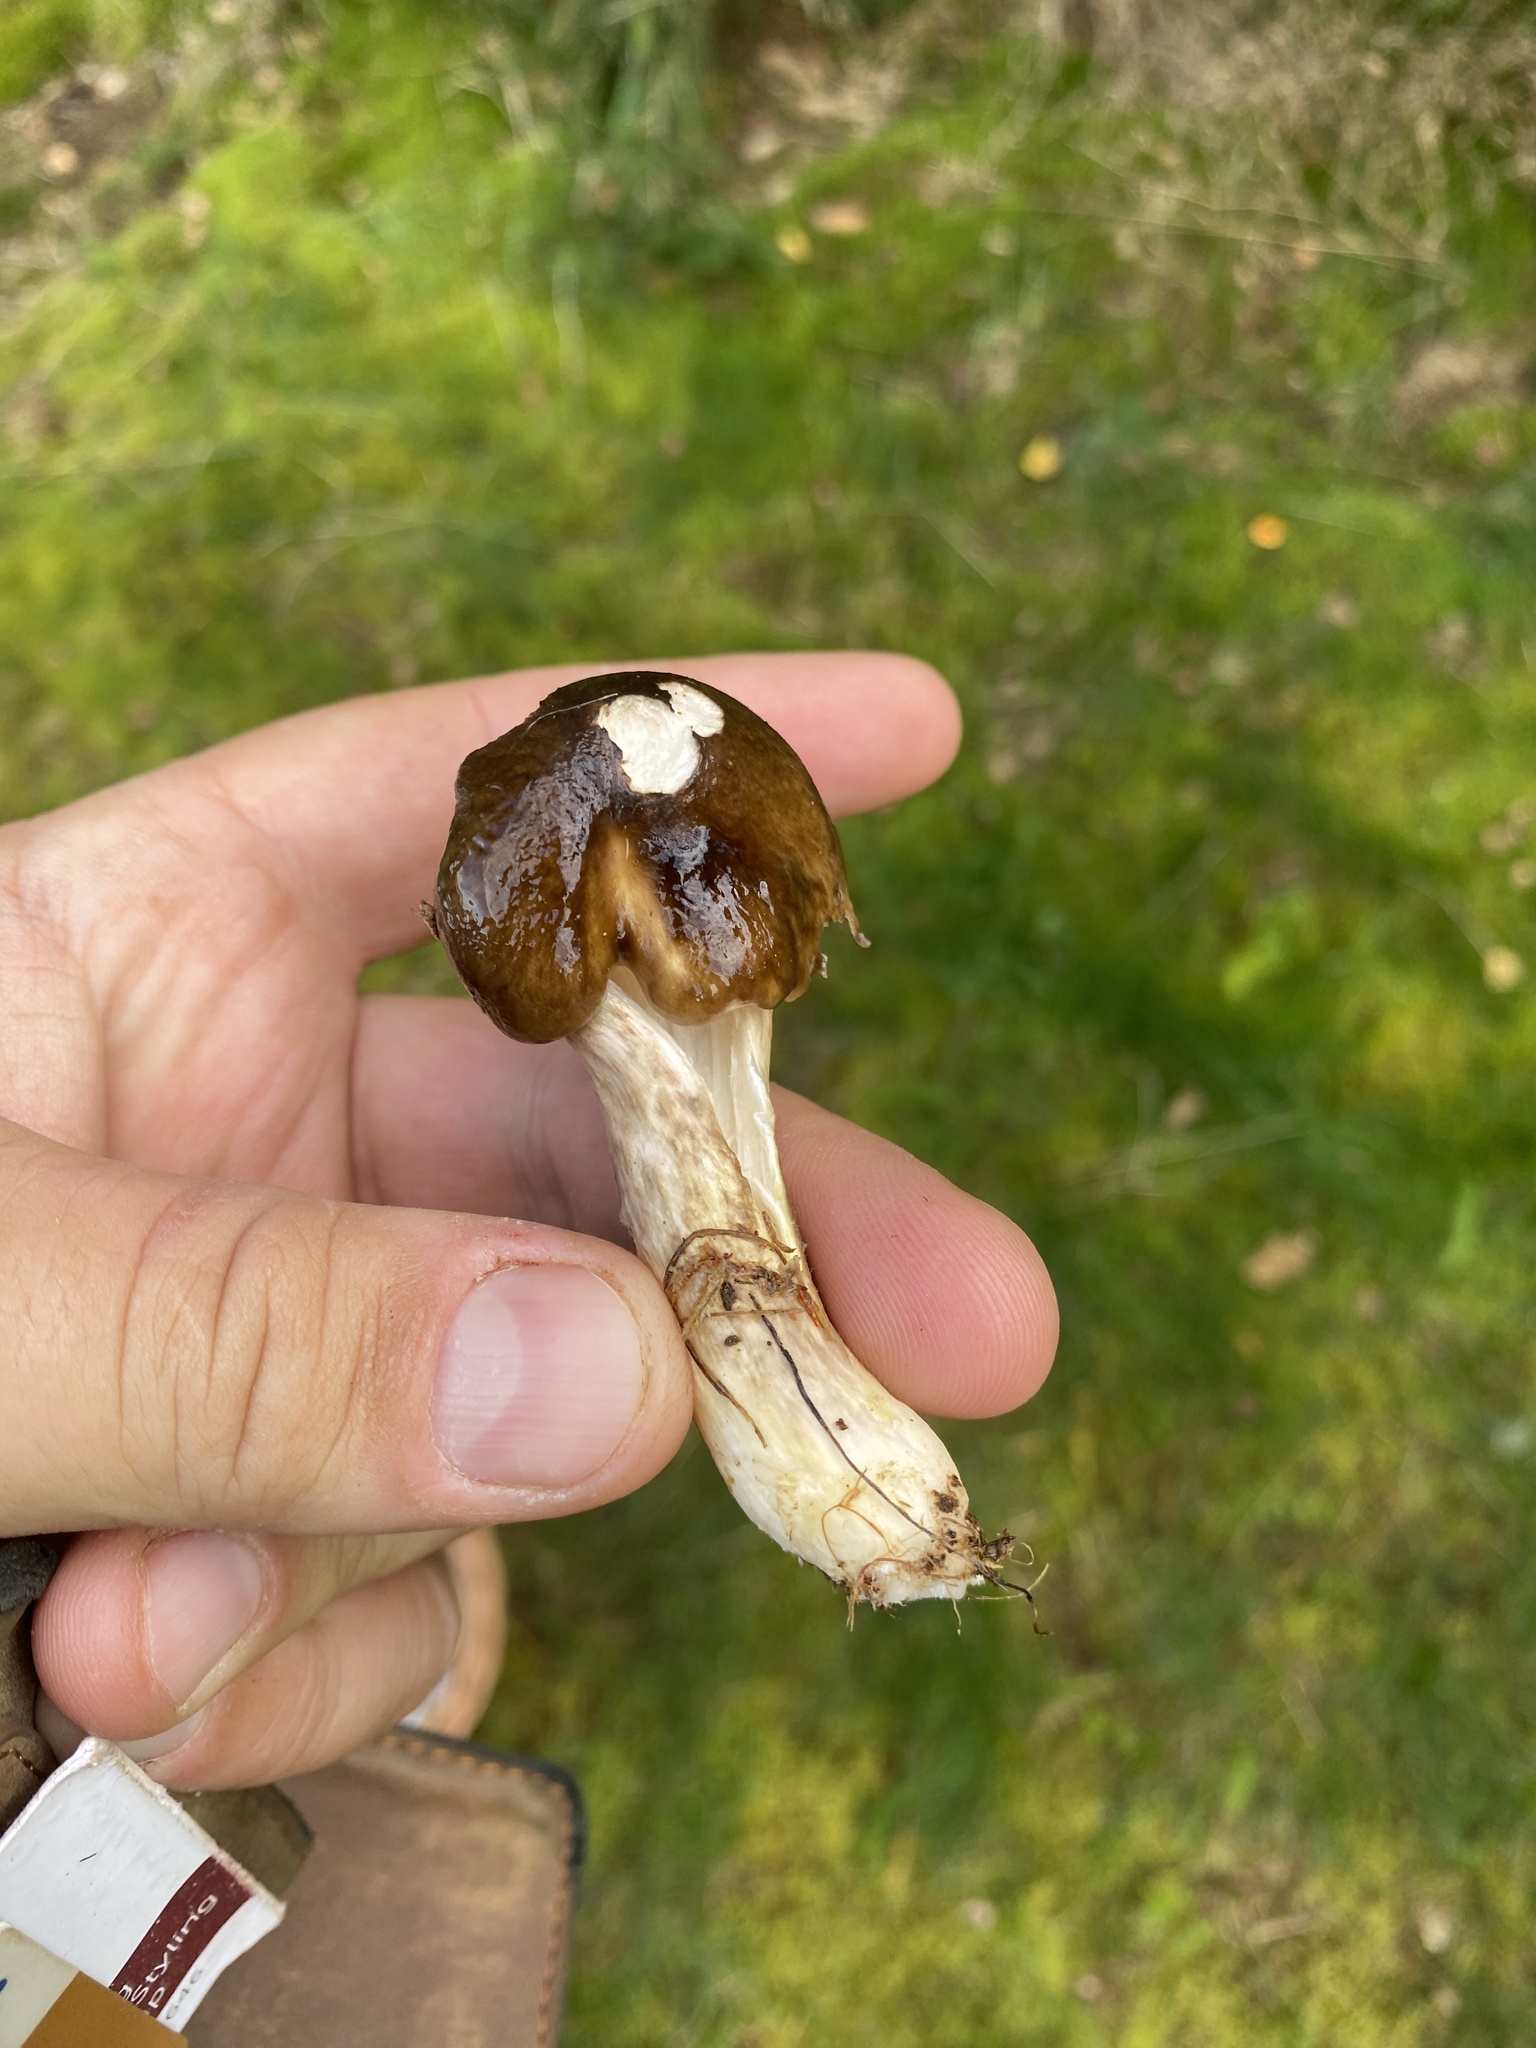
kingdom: Fungi
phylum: Basidiomycota
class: Agaricomycetes
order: Agaricales
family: Hygrophoraceae
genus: Hygrophorus
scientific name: Hygrophorus olivaceoalbus
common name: Olive wax cap
